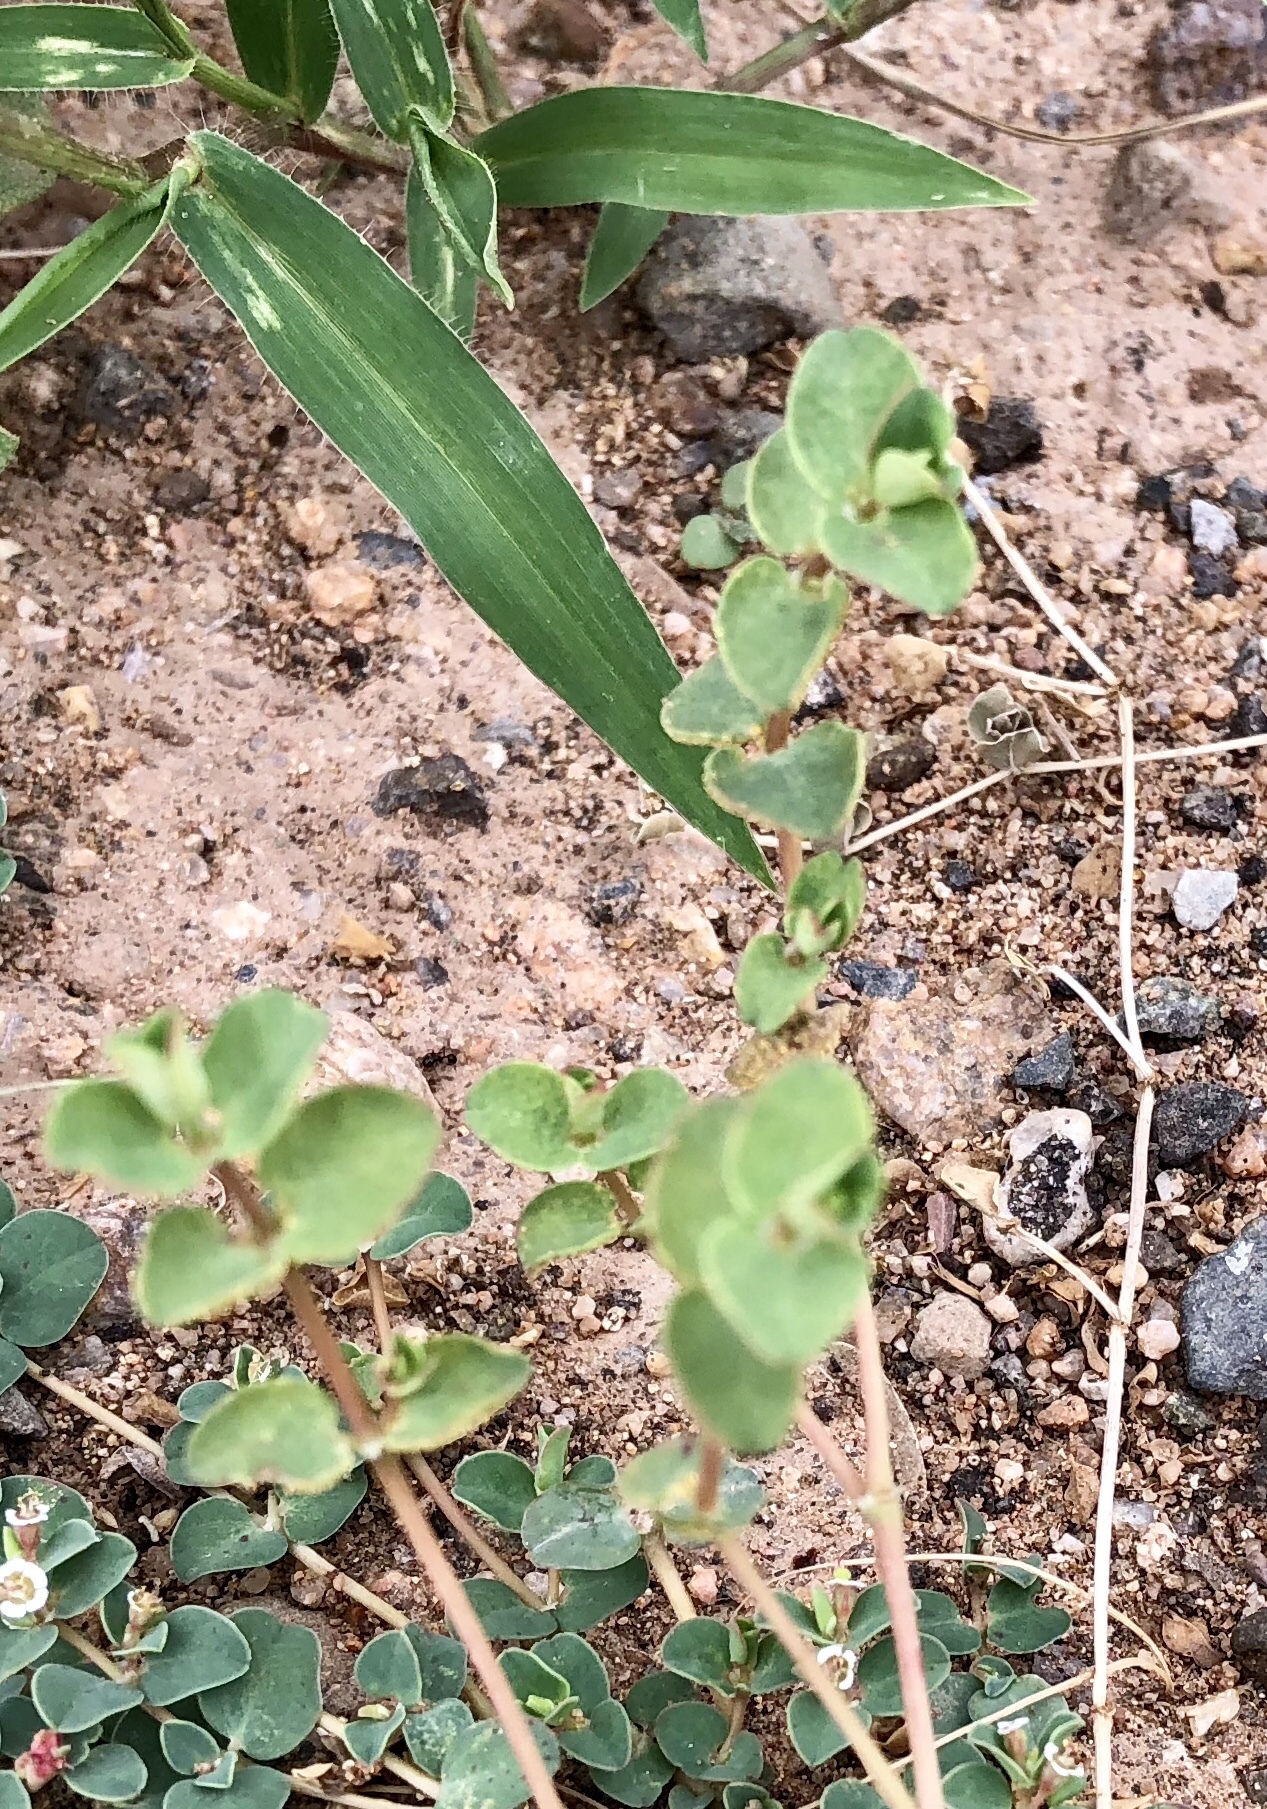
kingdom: Plantae
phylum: Tracheophyta
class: Magnoliopsida
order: Malpighiales
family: Euphorbiaceae
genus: Euphorbia
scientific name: Euphorbia albomarginata
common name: Whitemargin sandmat
